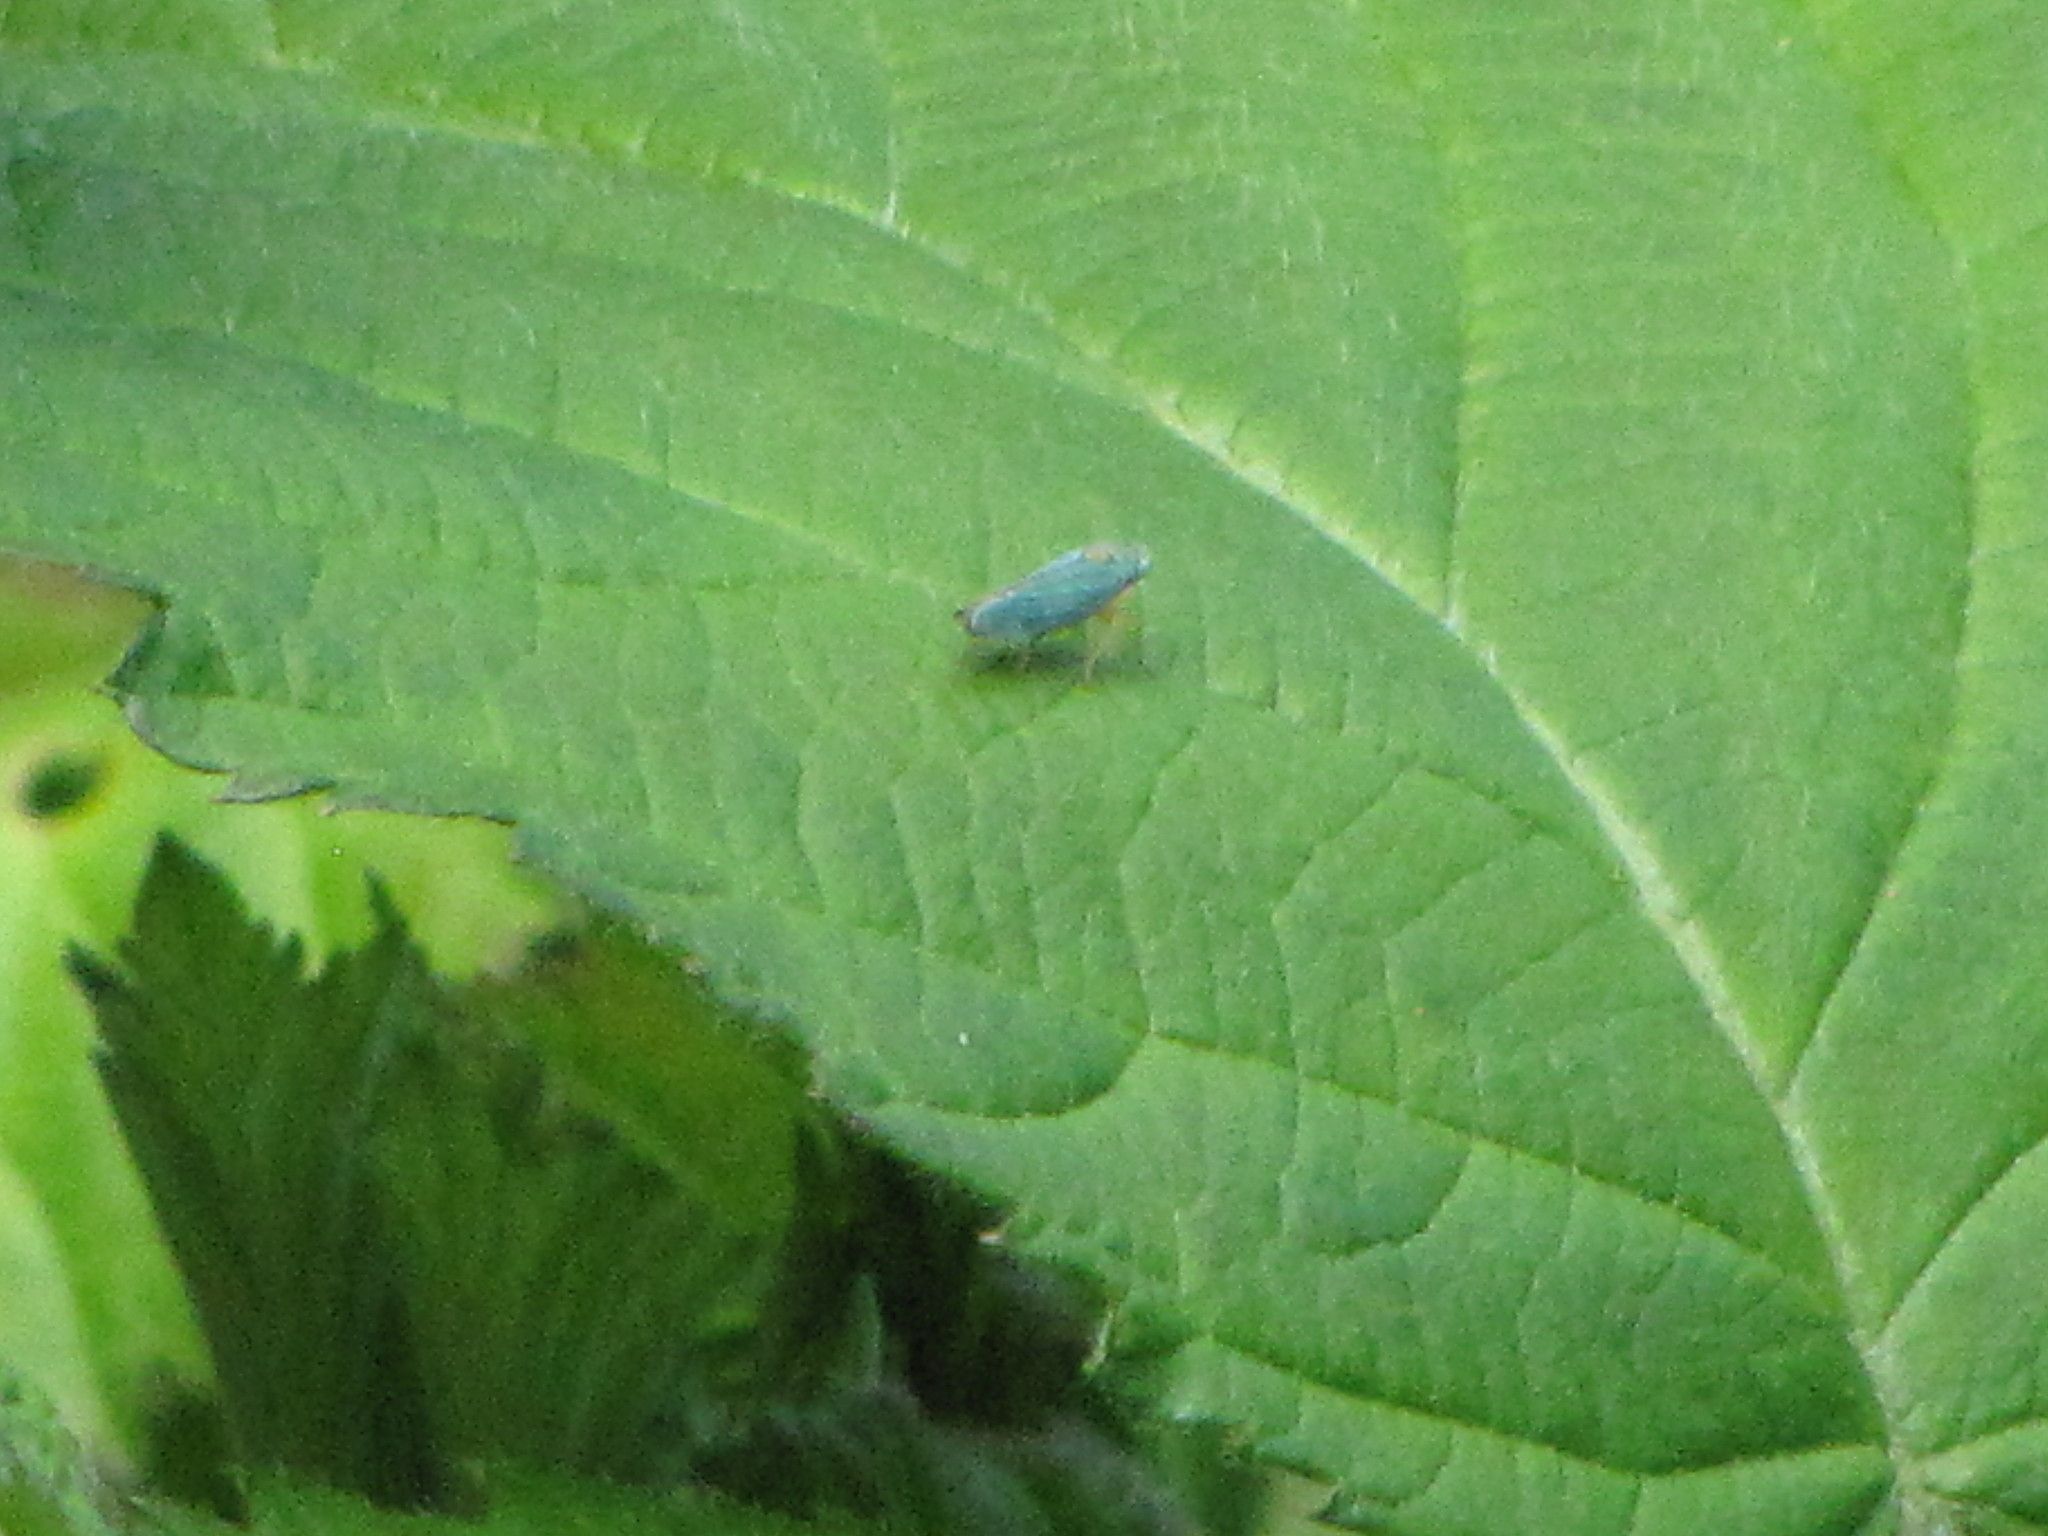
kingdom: Animalia
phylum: Arthropoda
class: Insecta
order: Hemiptera
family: Cicadellidae
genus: Graphocephala
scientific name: Graphocephala atropunctata
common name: Blue-green sharpshooter
